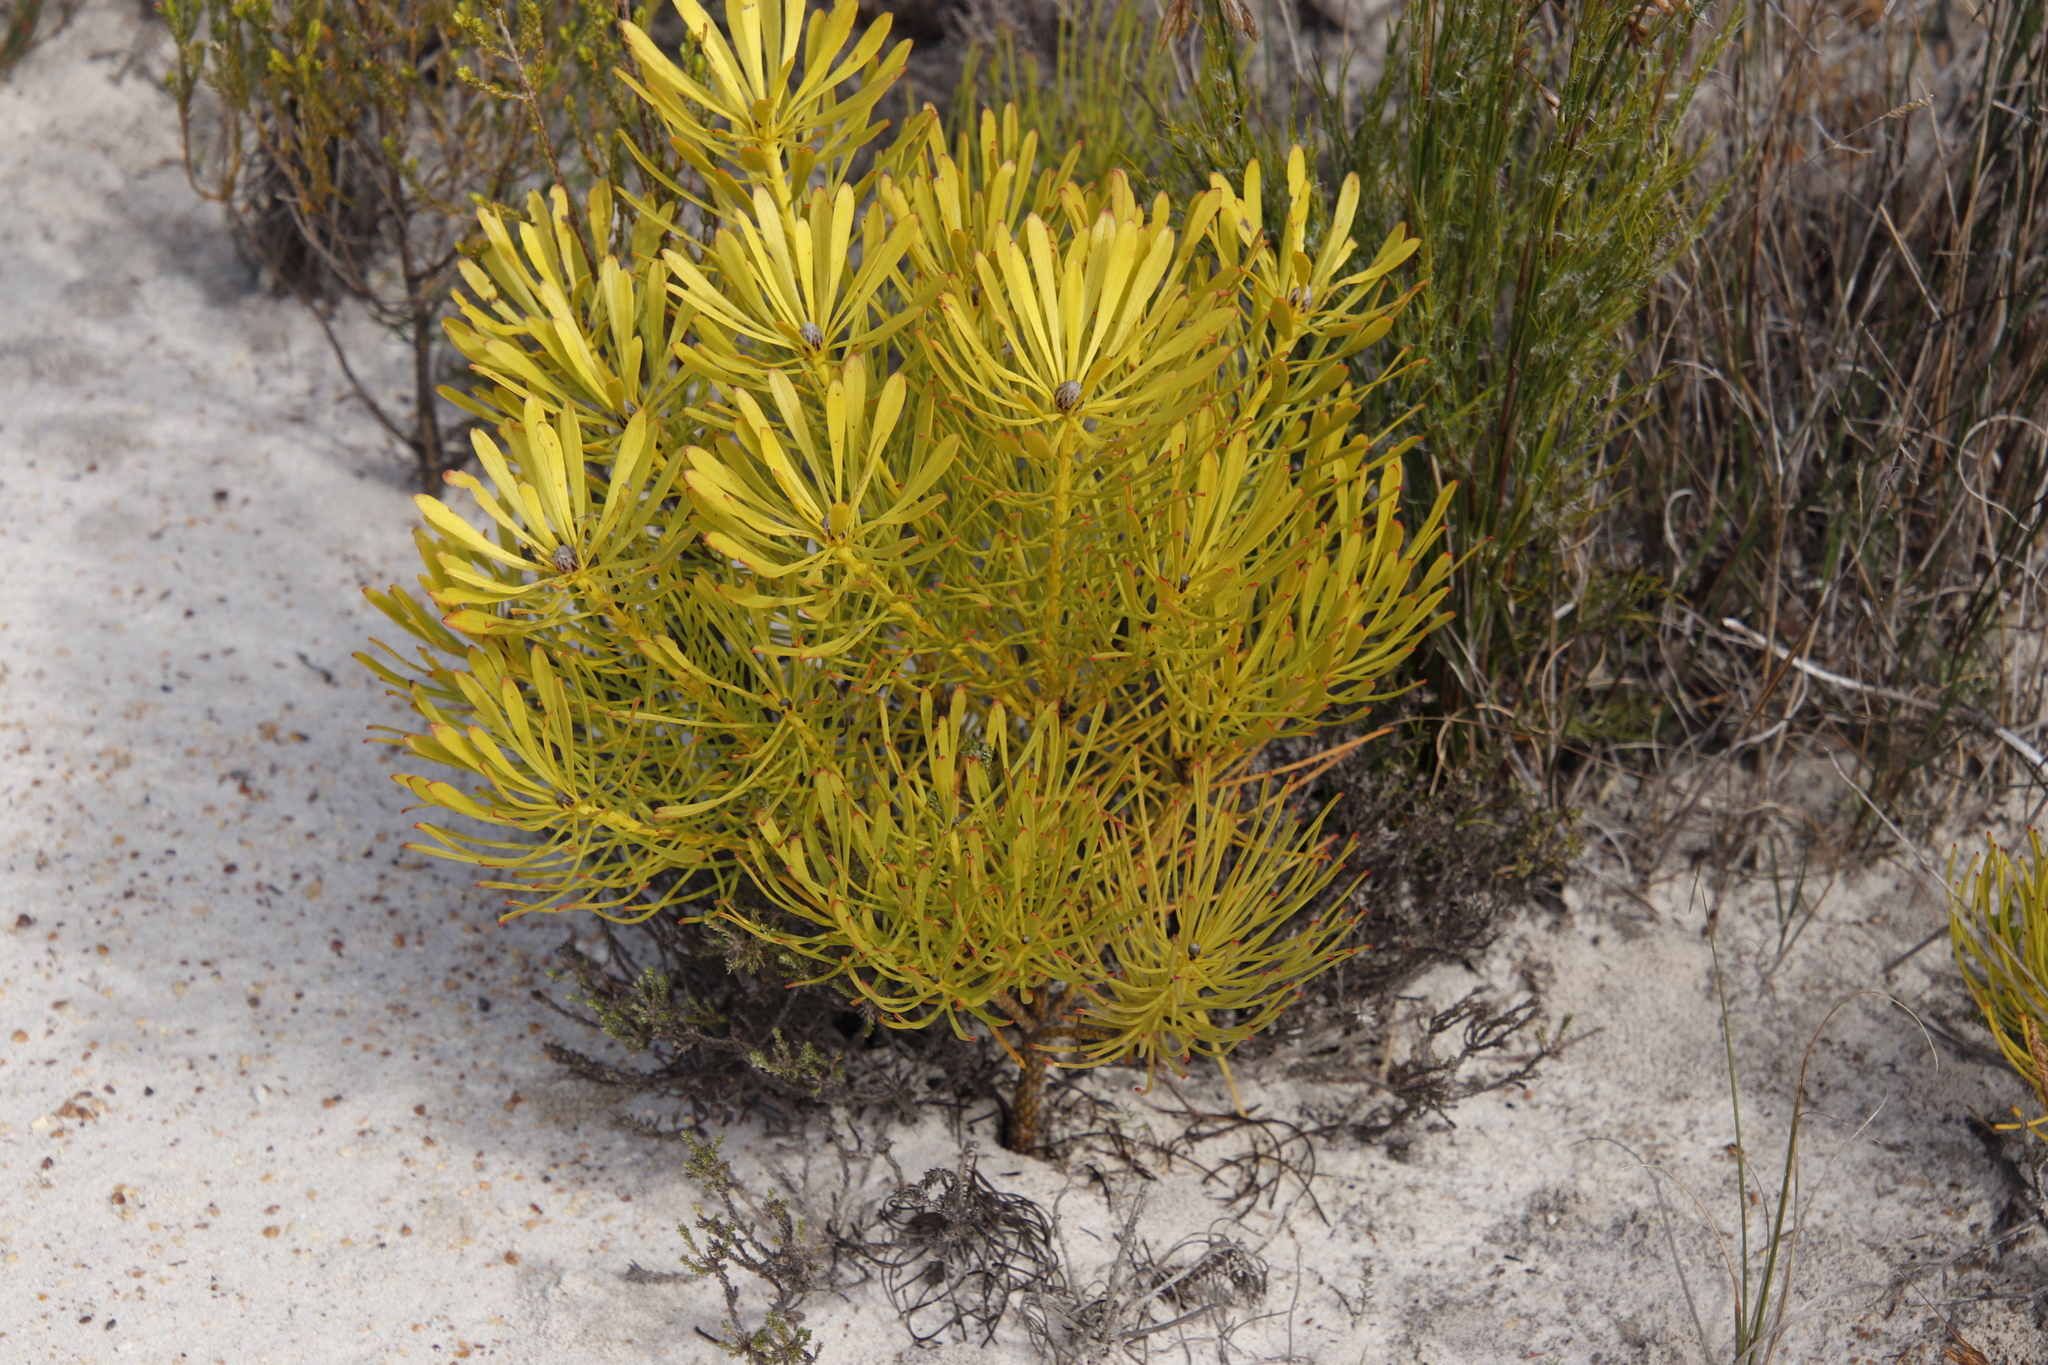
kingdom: Plantae
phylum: Tracheophyta
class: Magnoliopsida
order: Proteales
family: Proteaceae
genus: Leucadendron
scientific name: Leucadendron platyspermum
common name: Plate-seed conebush
